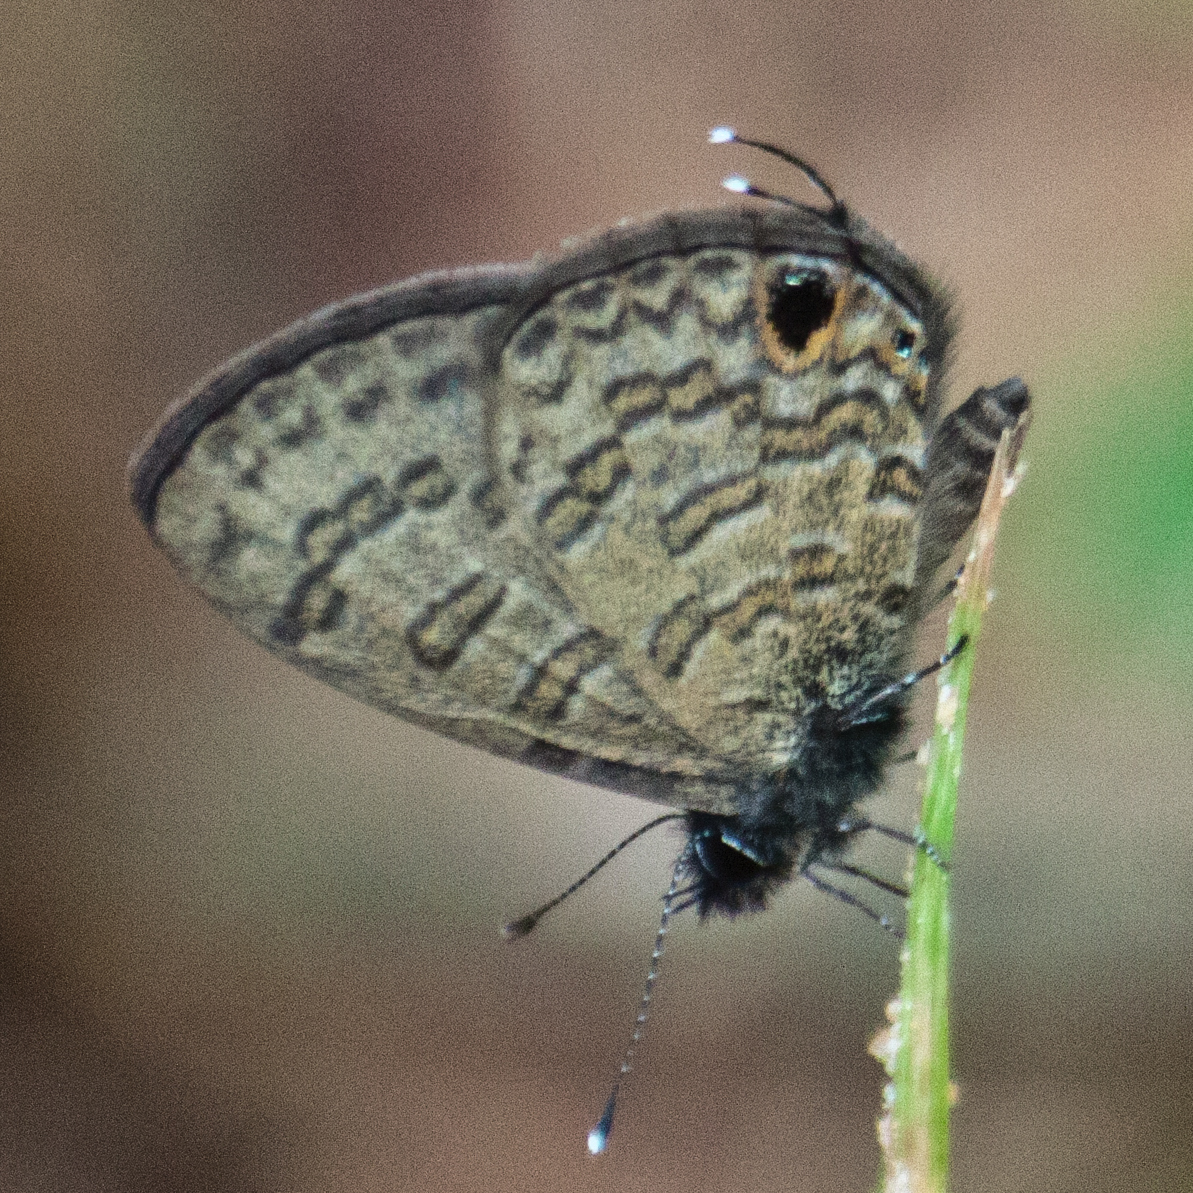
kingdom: Animalia
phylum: Arthropoda
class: Insecta
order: Lepidoptera
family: Lycaenidae
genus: Prosotas
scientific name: Prosotas nora
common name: Common line blue
